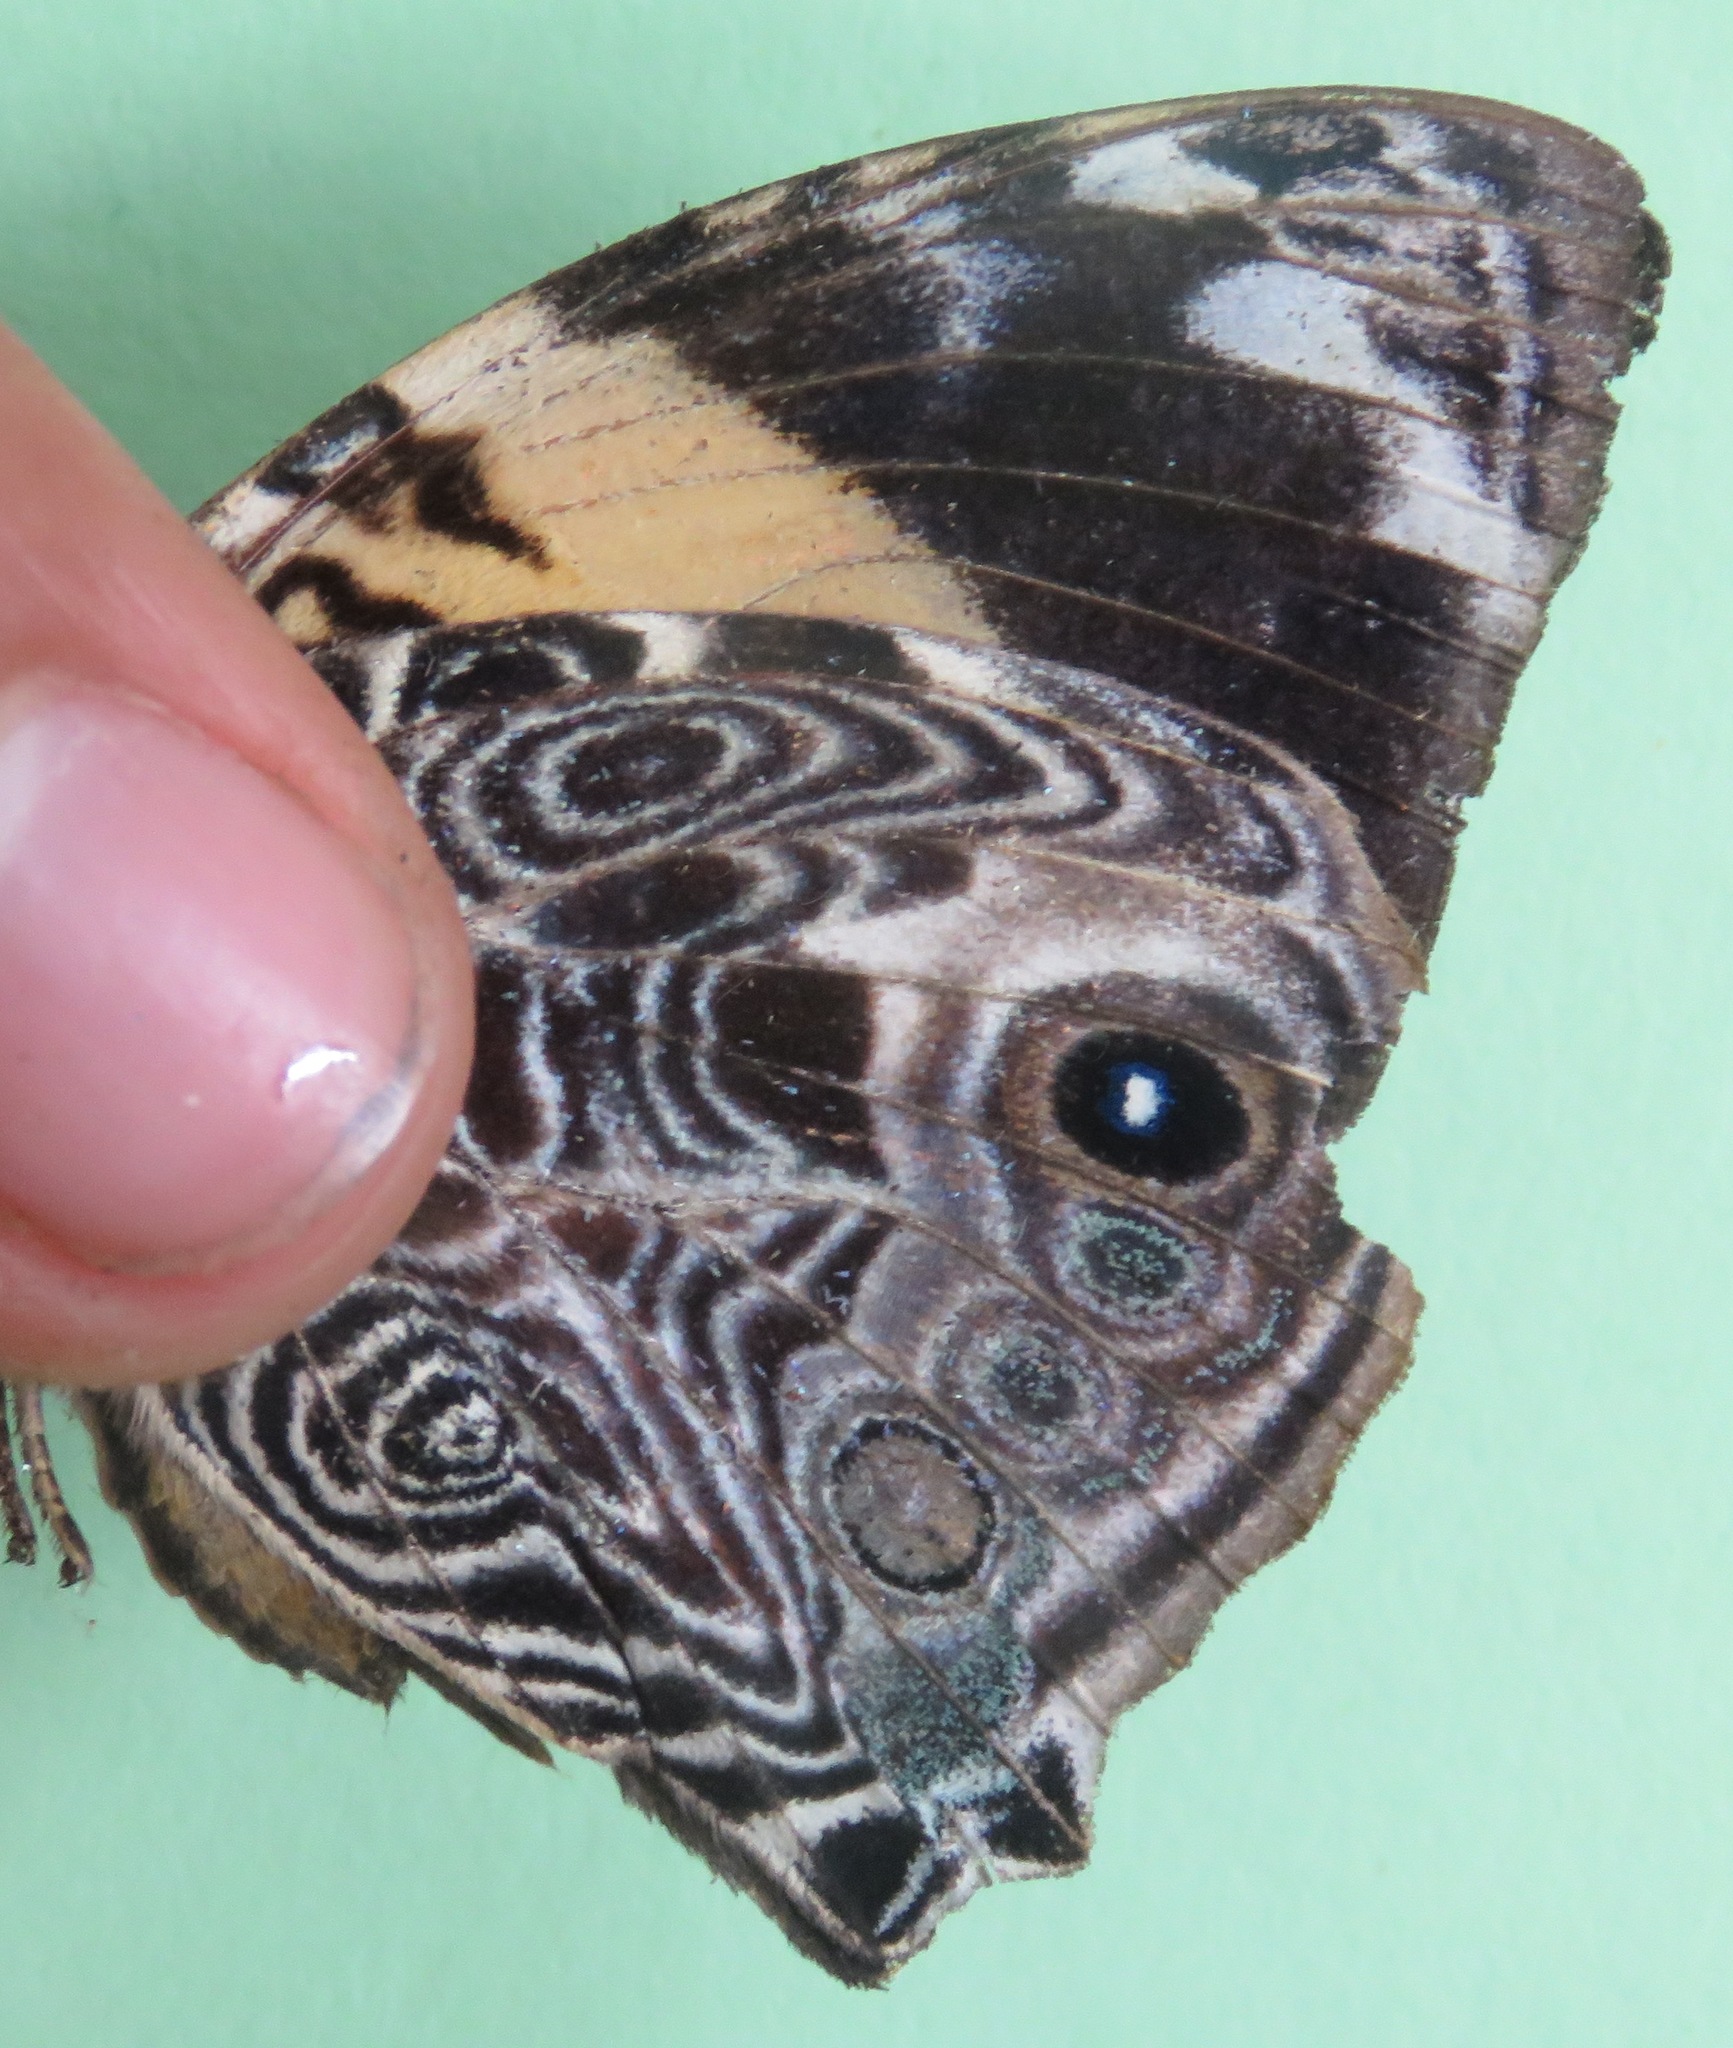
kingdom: Animalia
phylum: Arthropoda
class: Insecta
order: Lepidoptera
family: Nymphalidae
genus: Smyrna
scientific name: Smyrna blomfildia
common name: Blomfild's beauty
